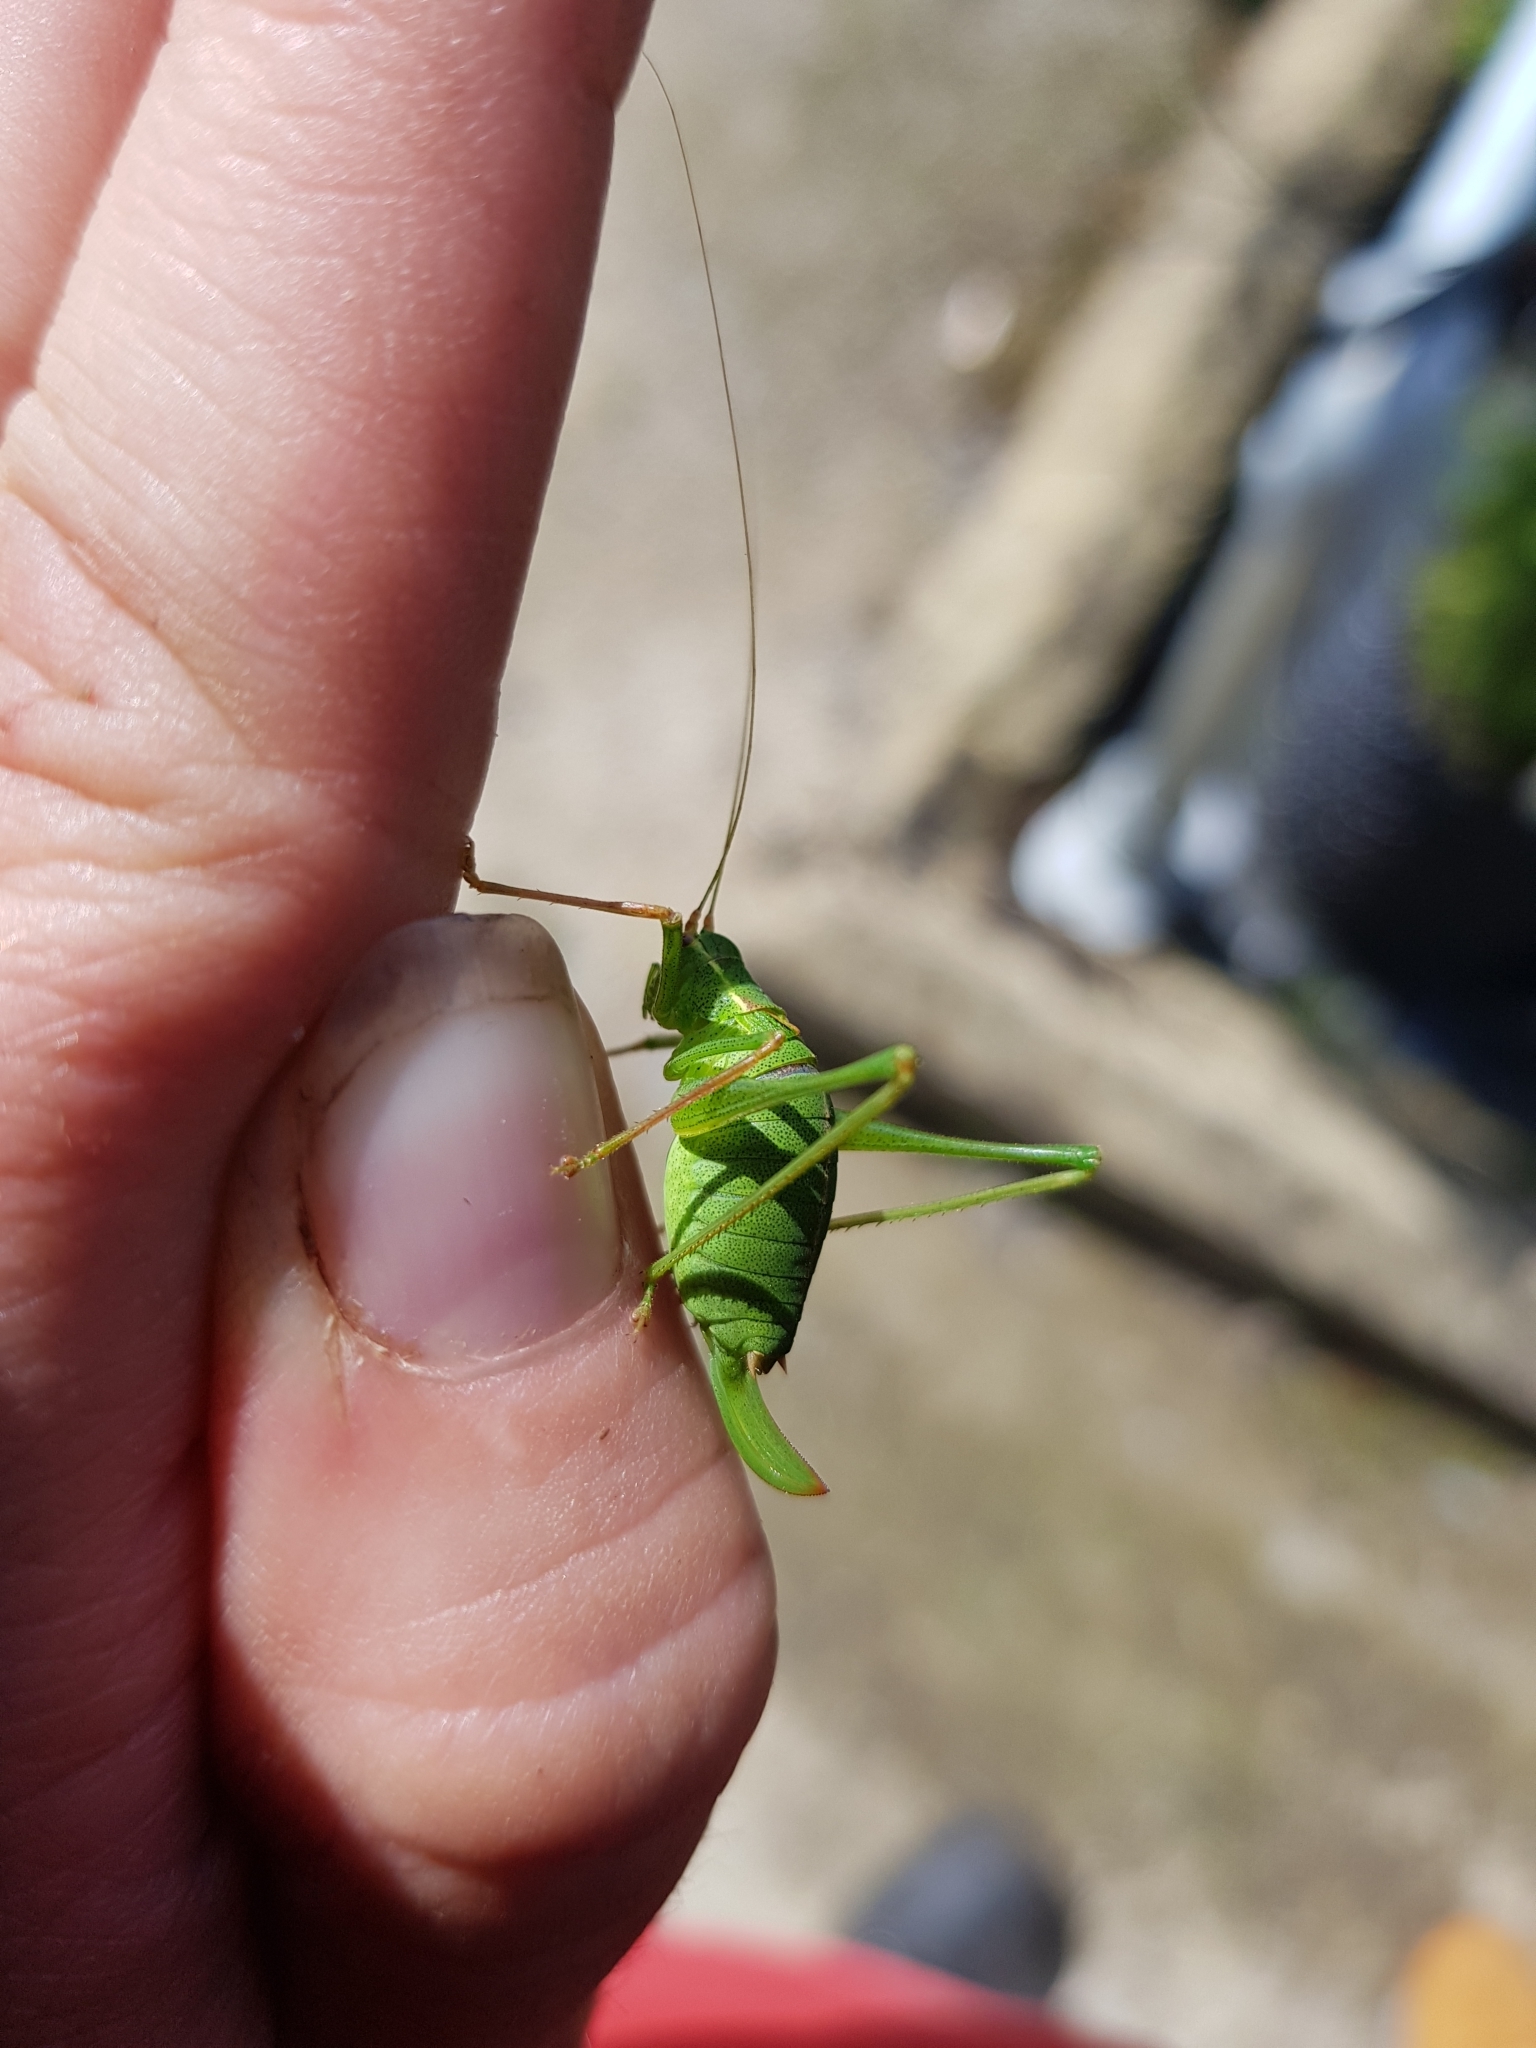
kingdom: Animalia
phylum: Arthropoda
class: Insecta
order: Orthoptera
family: Tettigoniidae
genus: Leptophyes
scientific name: Leptophyes punctatissima
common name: Speckled bush-cricket
